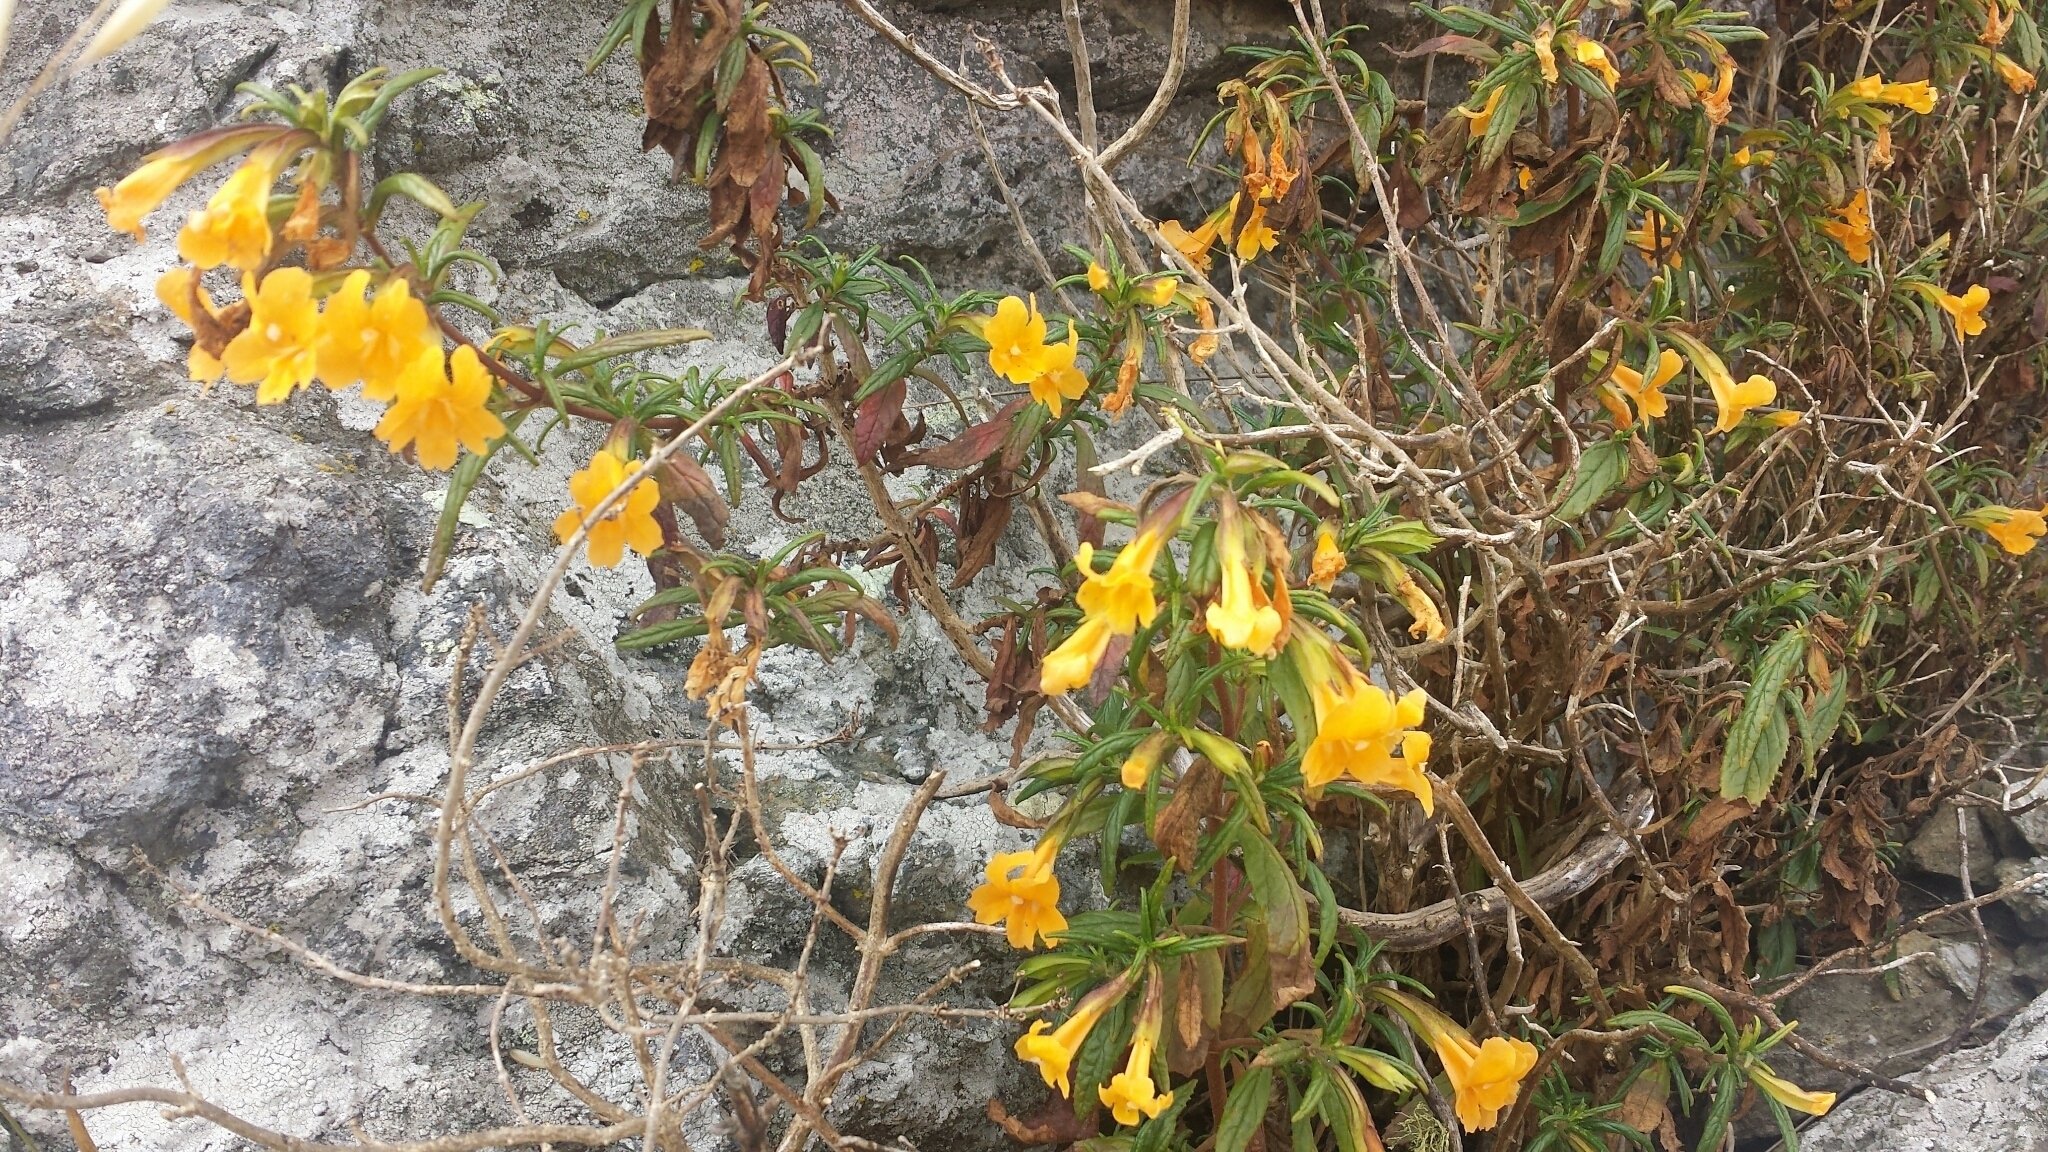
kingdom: Plantae
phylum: Tracheophyta
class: Magnoliopsida
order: Lamiales
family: Phrymaceae
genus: Diplacus
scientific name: Diplacus aurantiacus
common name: Bush monkey-flower
